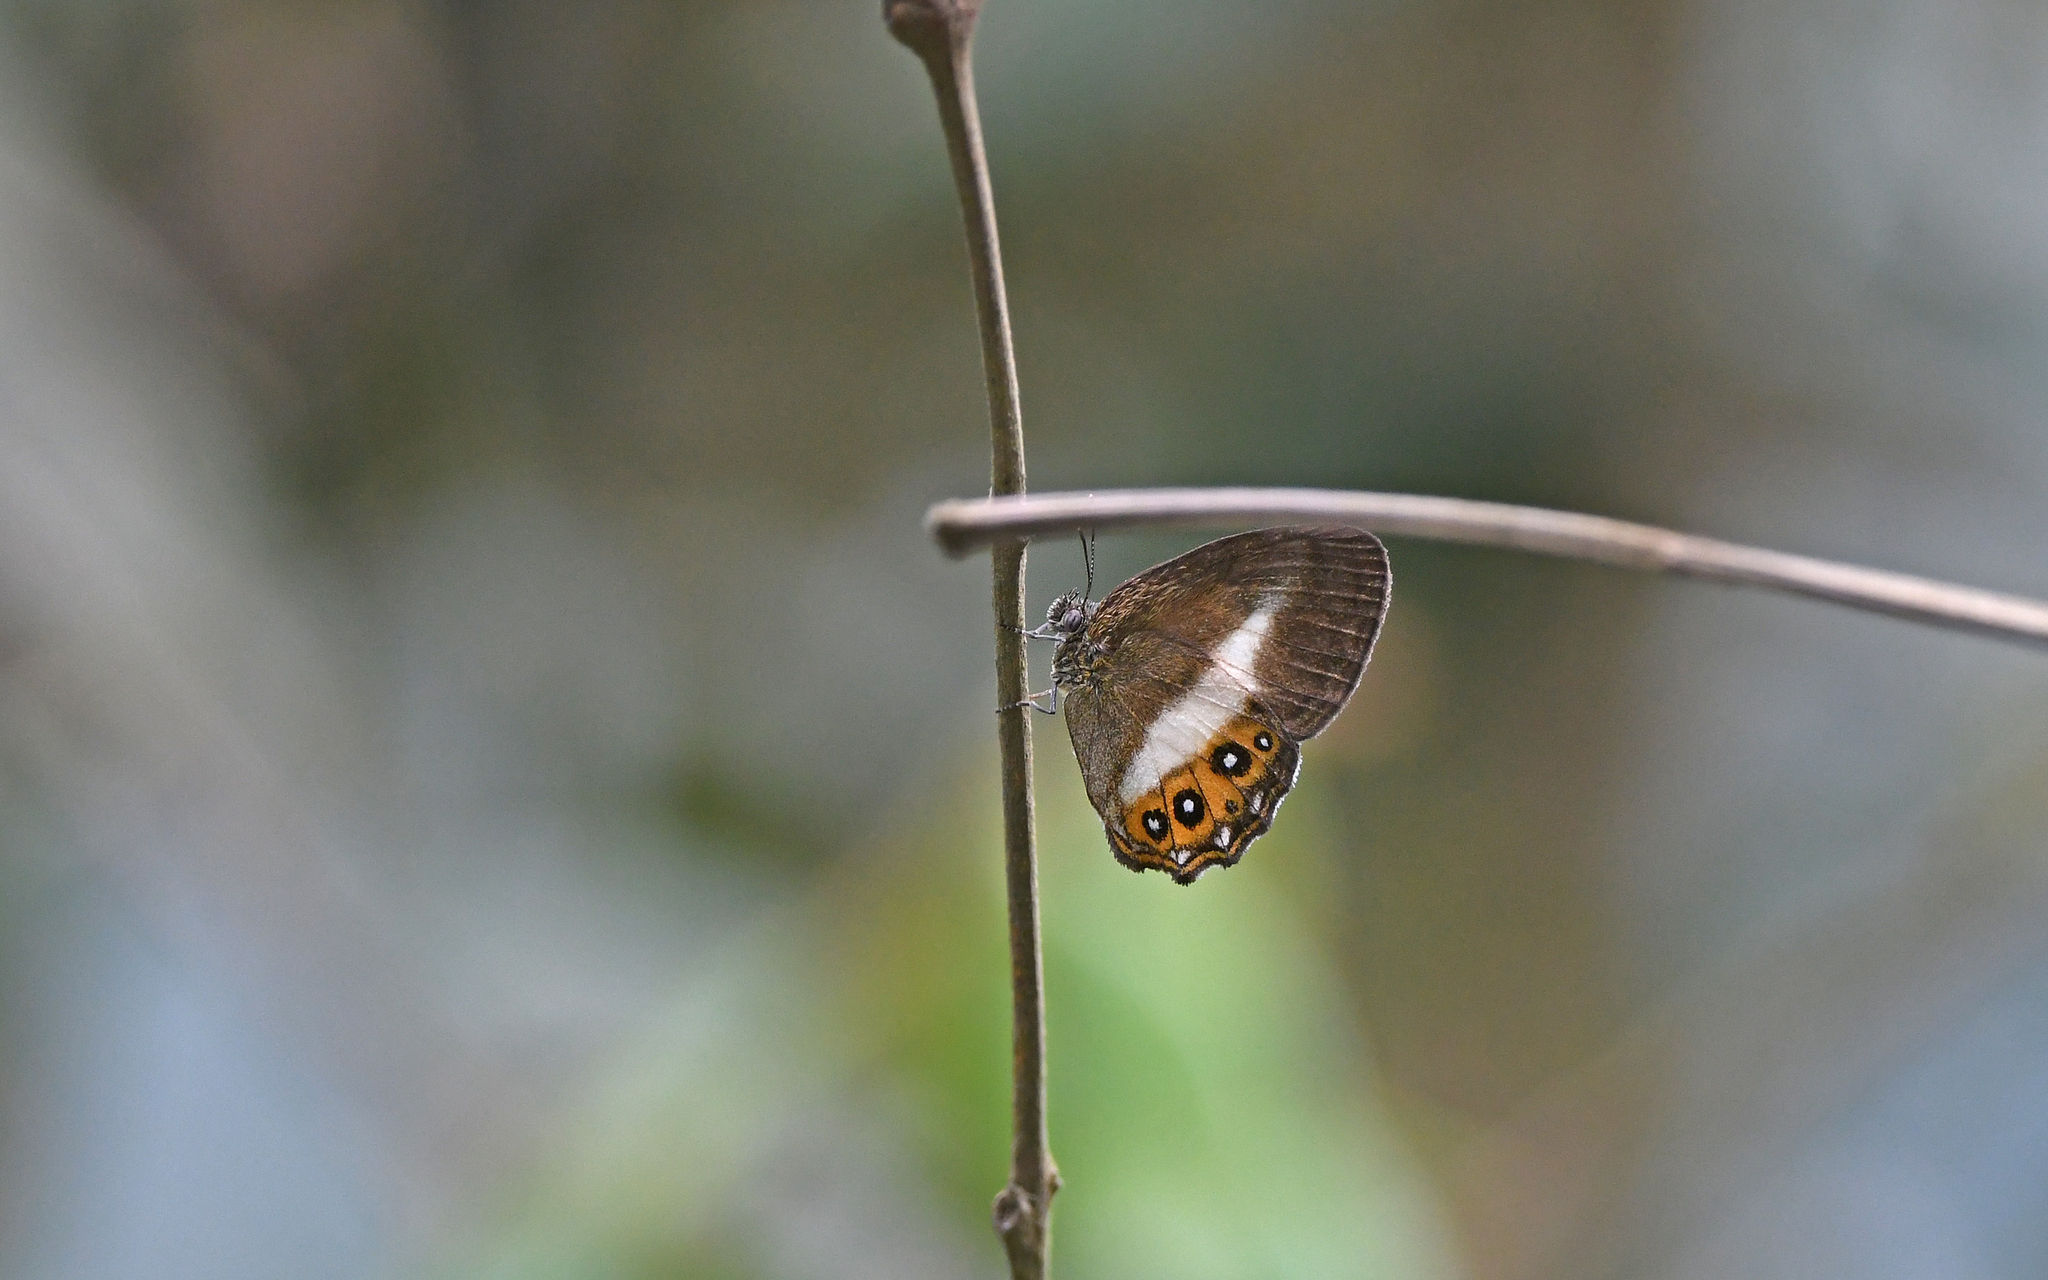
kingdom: Animalia
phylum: Arthropoda
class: Insecta
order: Lepidoptera
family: Nymphalidae
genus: Saurona
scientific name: Saurona
